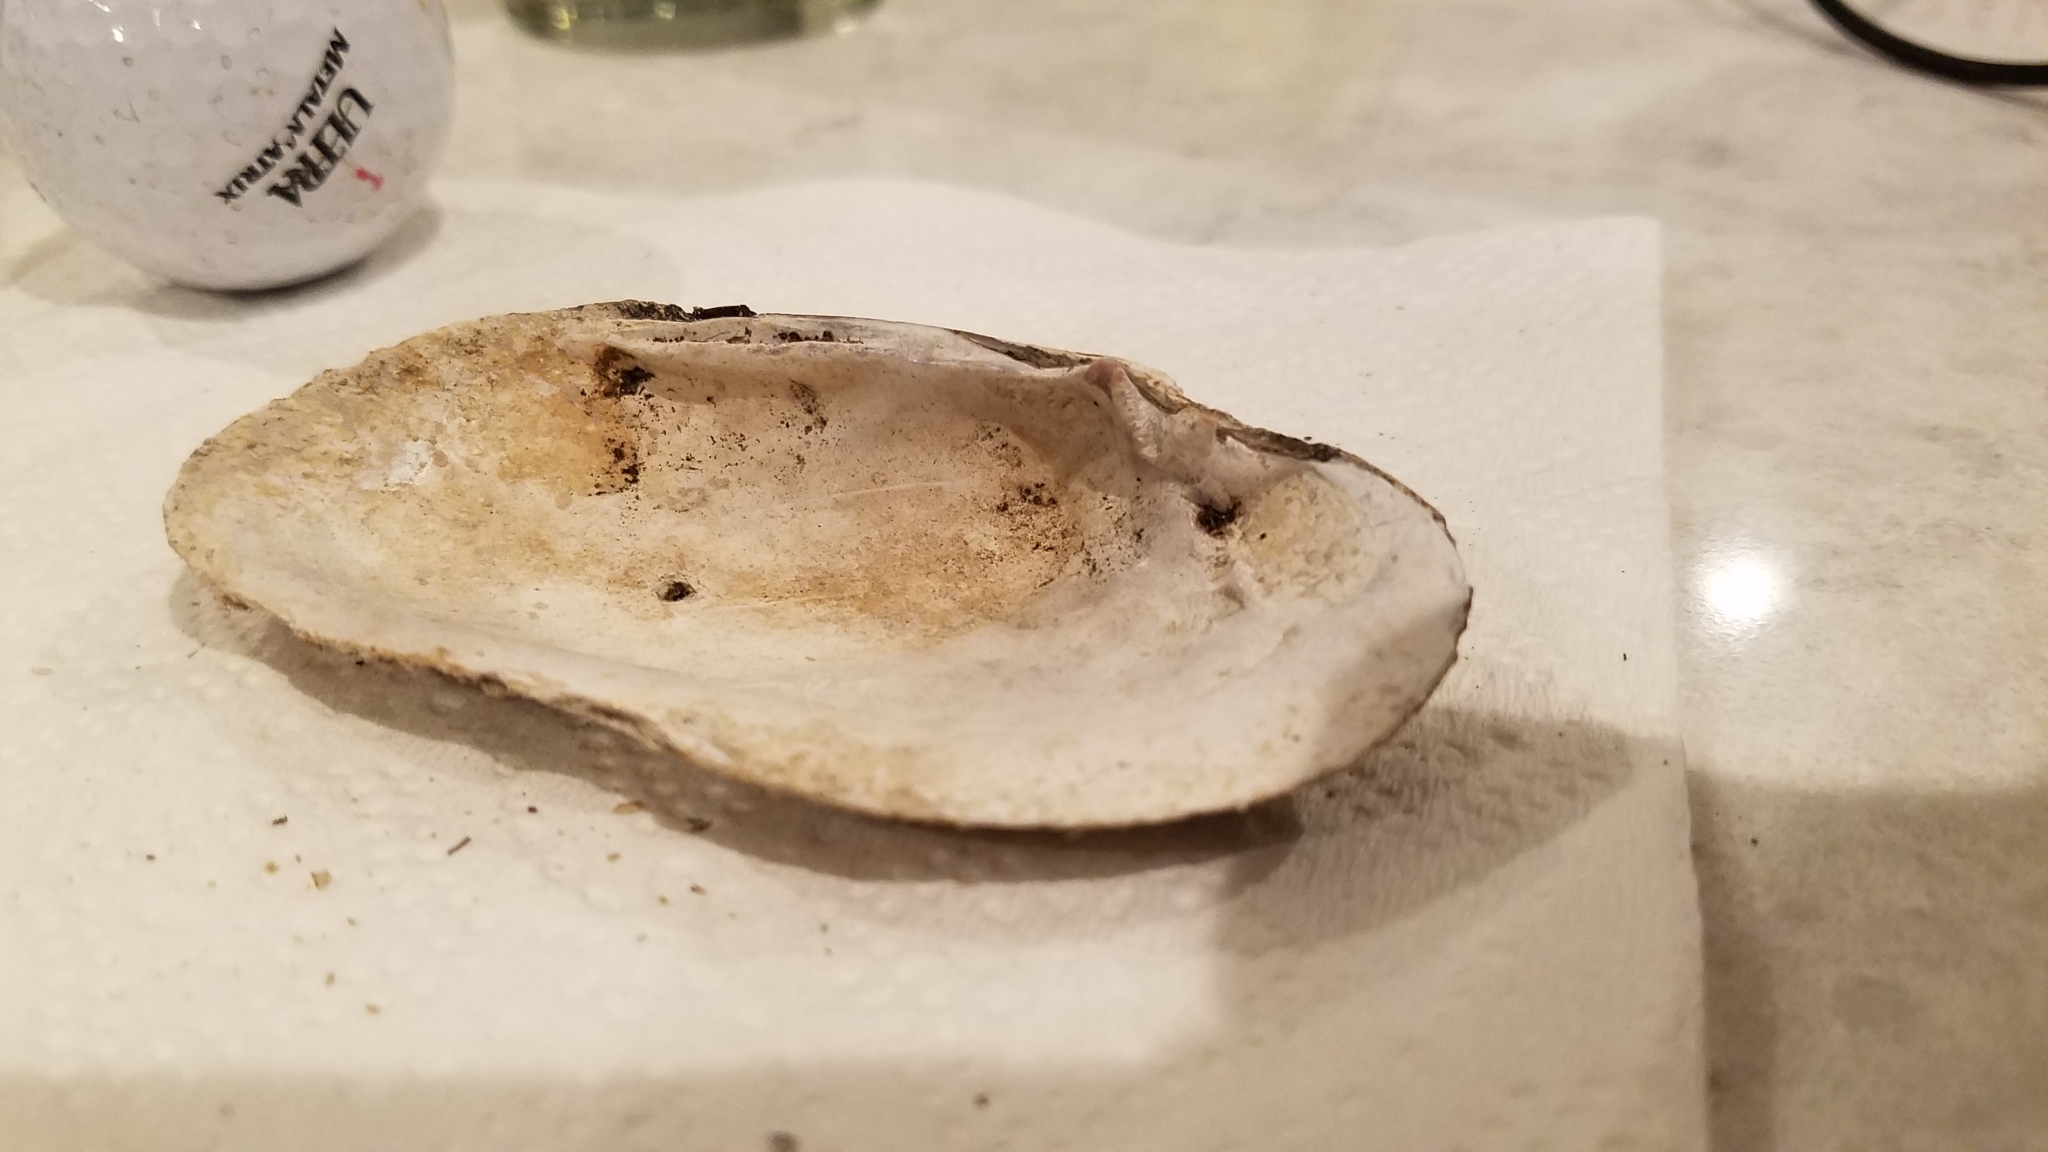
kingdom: Animalia
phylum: Mollusca
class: Bivalvia
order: Unionida
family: Unionidae
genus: Eurynia
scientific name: Eurynia dilatata
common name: Spike
